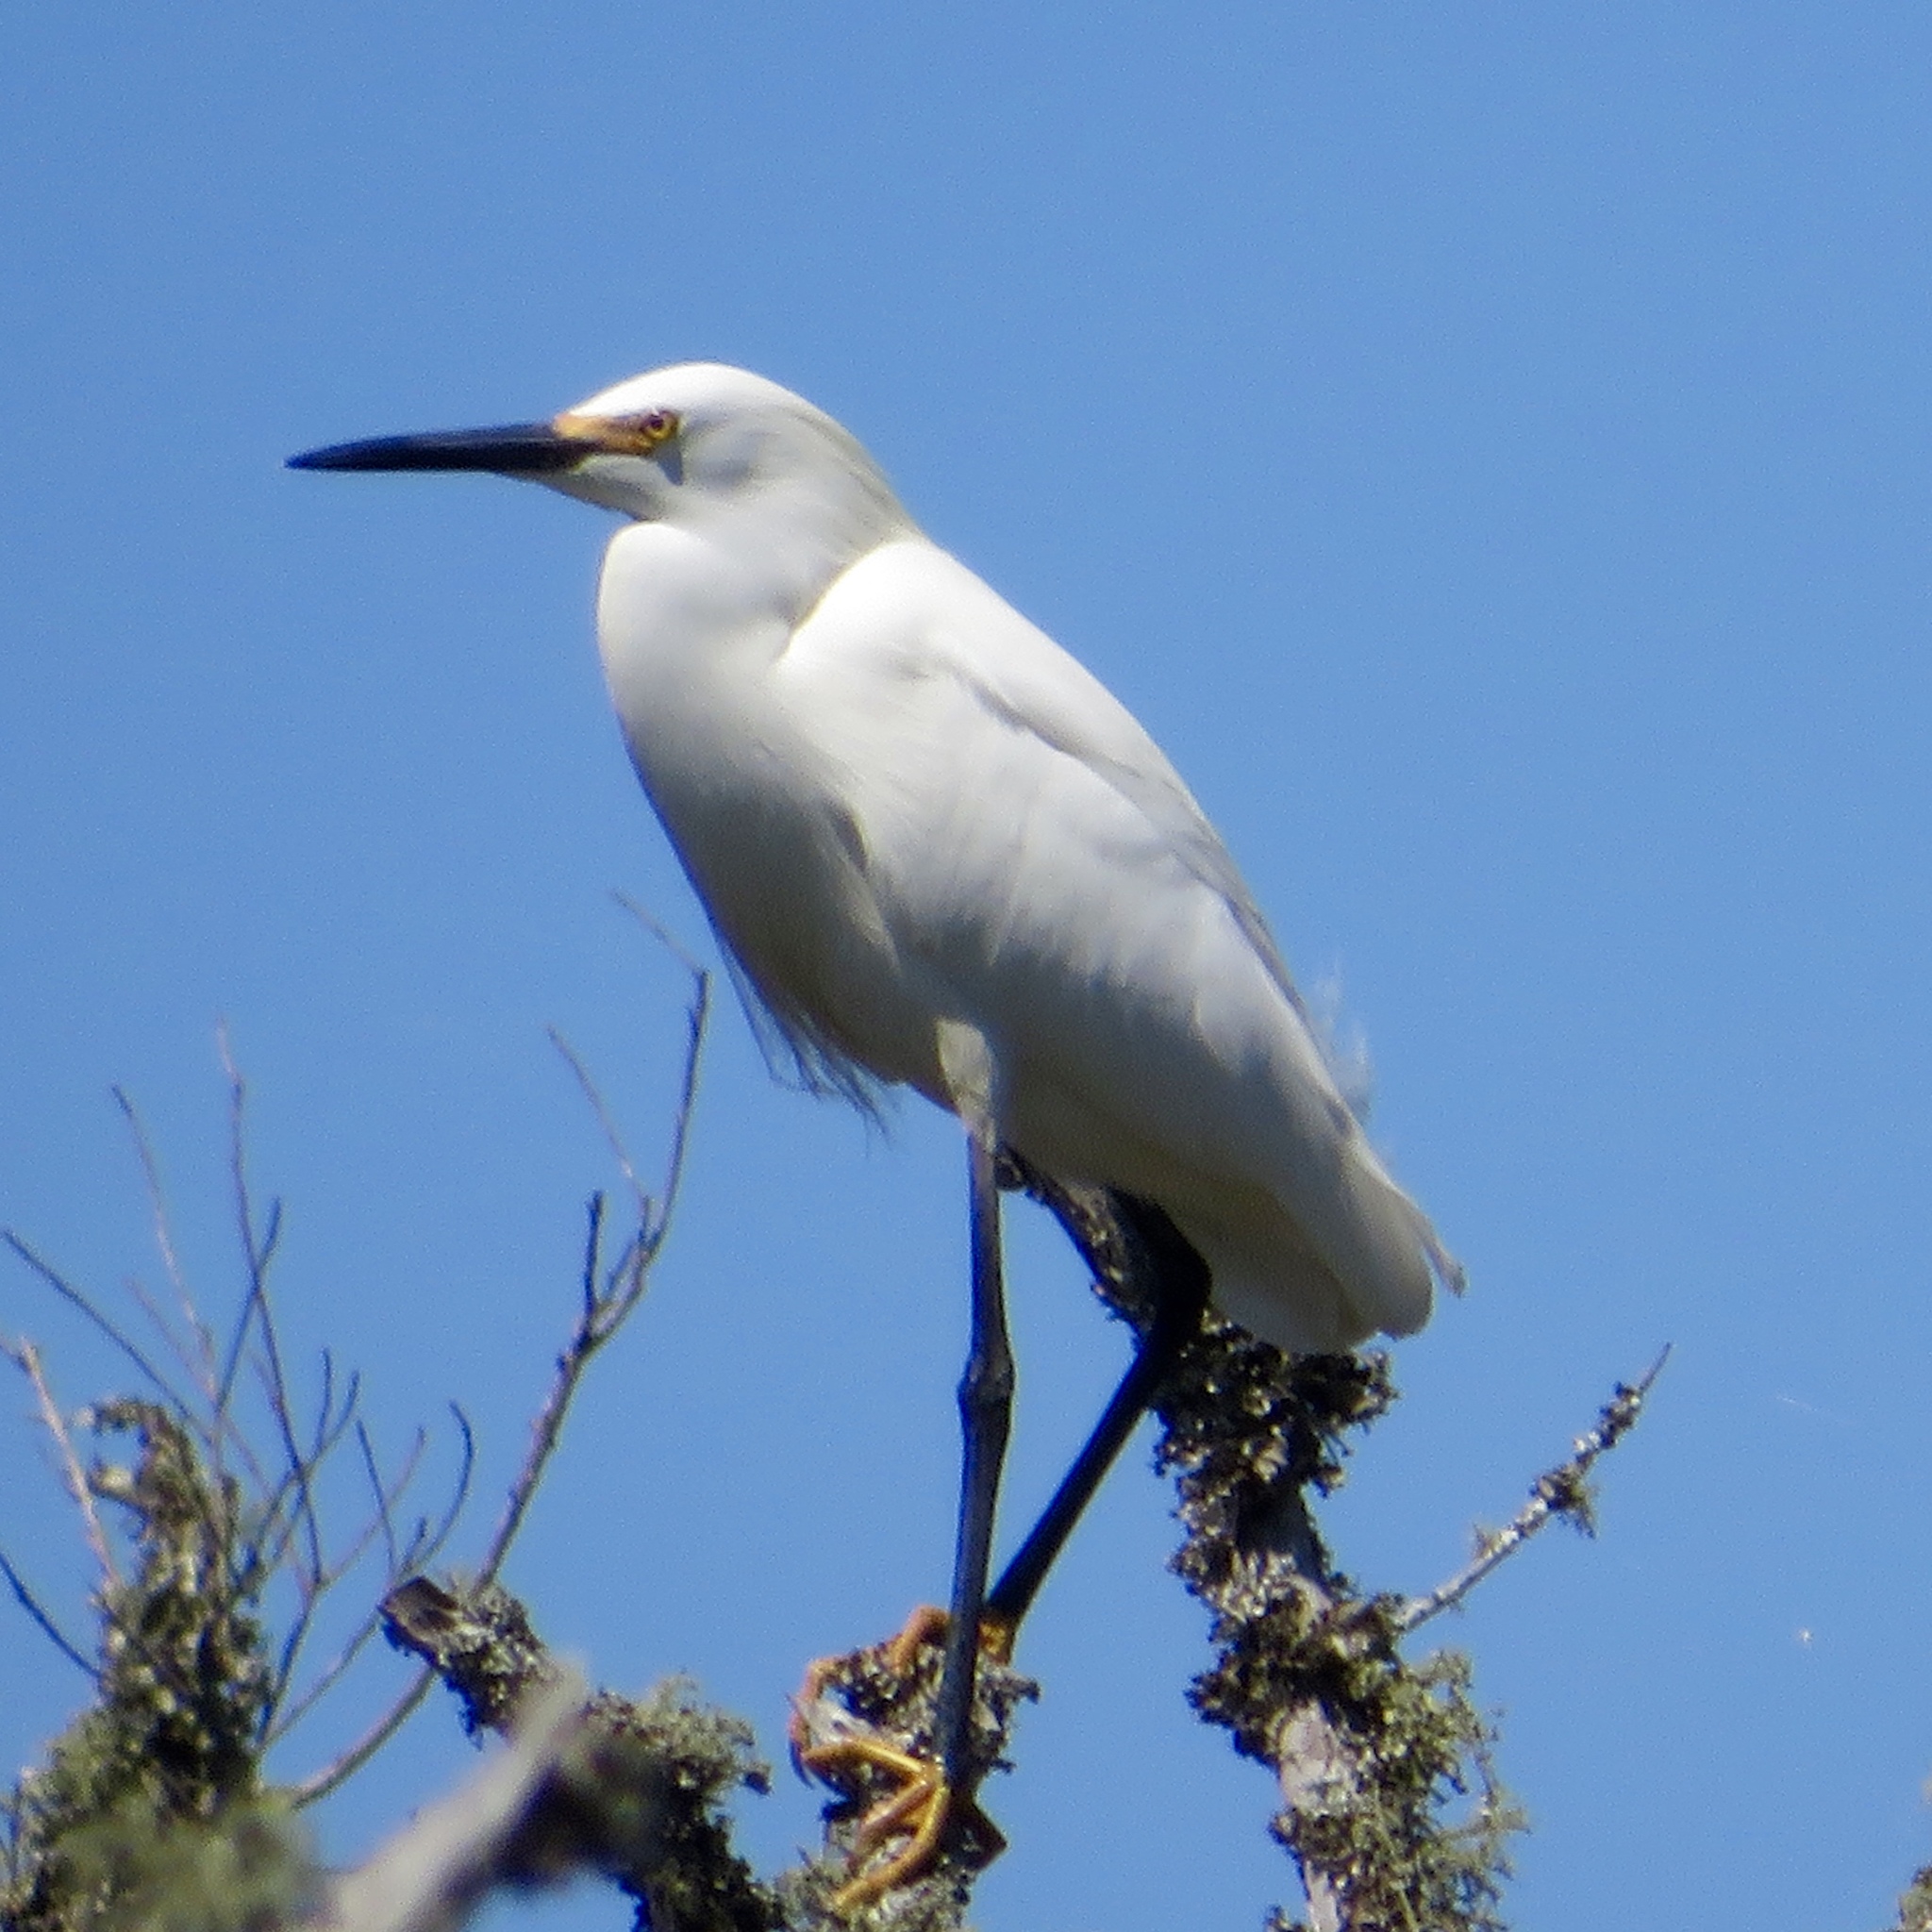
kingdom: Animalia
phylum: Chordata
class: Aves
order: Pelecaniformes
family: Ardeidae
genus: Egretta
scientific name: Egretta thula
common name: Snowy egret
